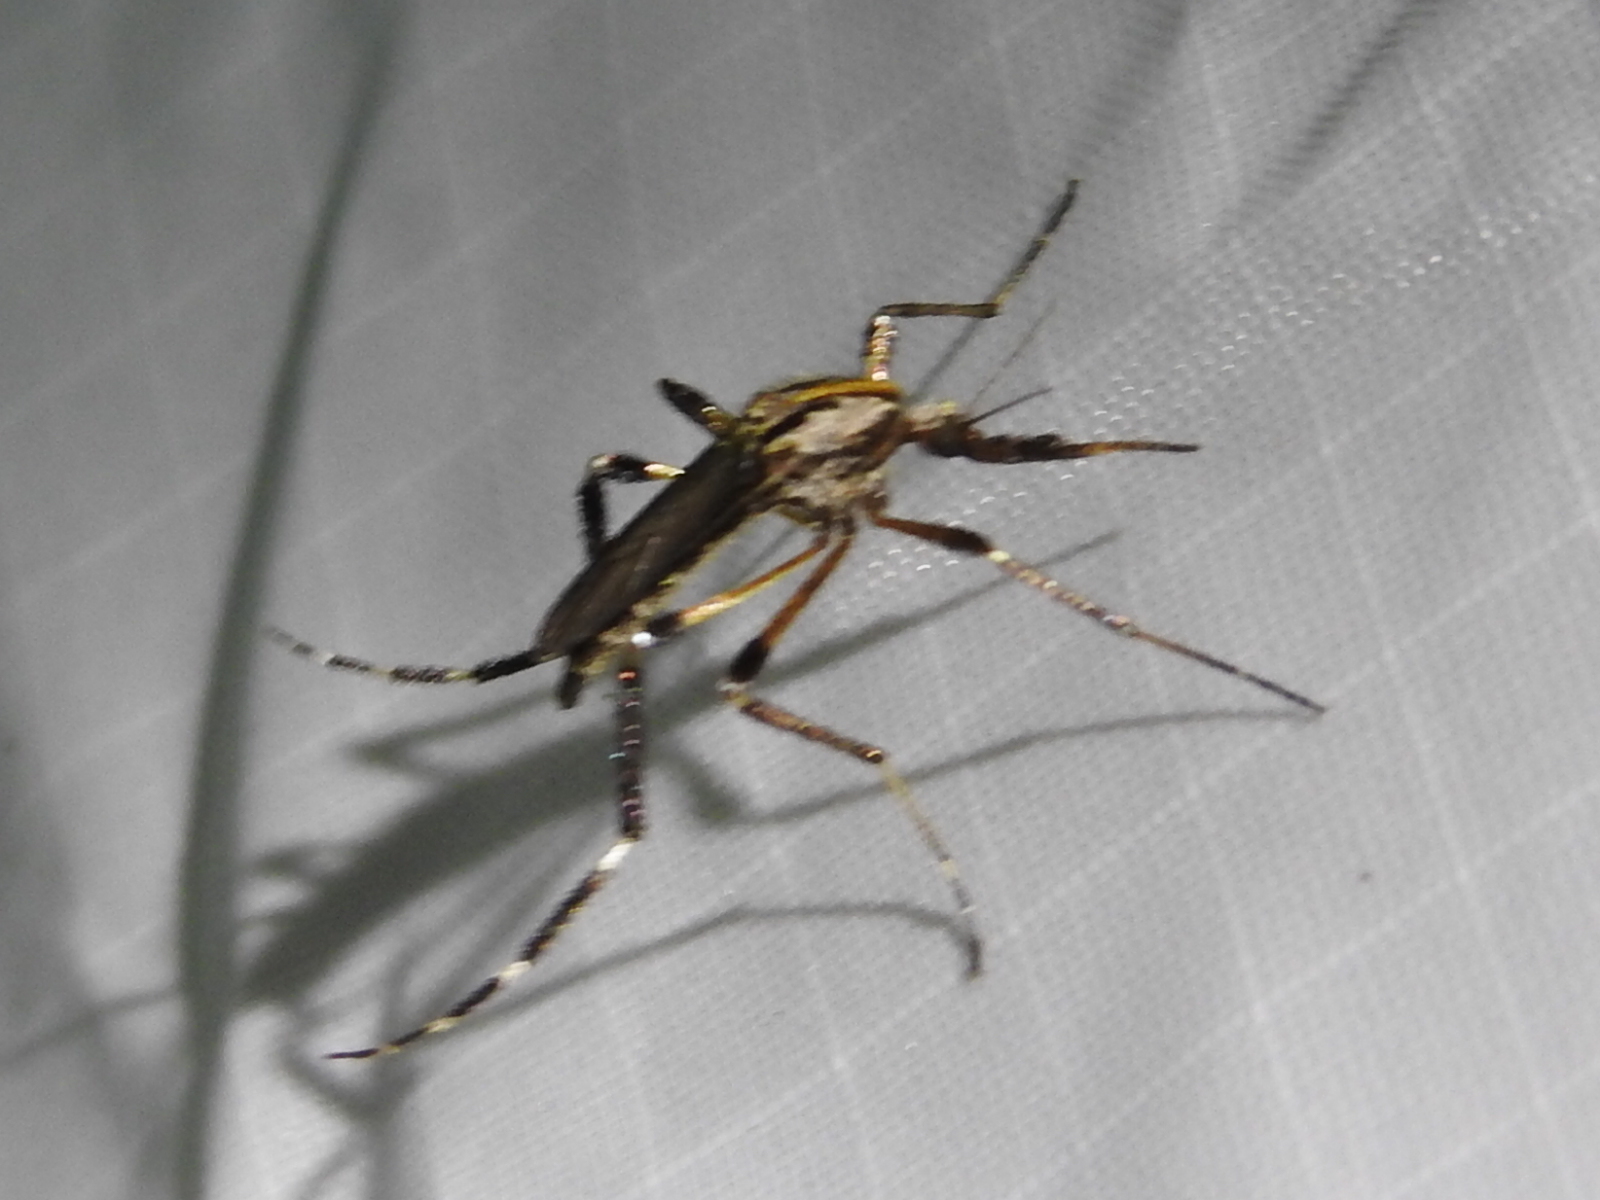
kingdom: Animalia
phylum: Arthropoda
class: Insecta
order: Diptera
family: Culicidae
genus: Psorophora
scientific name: Psorophora ciliata
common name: Gallinipper
